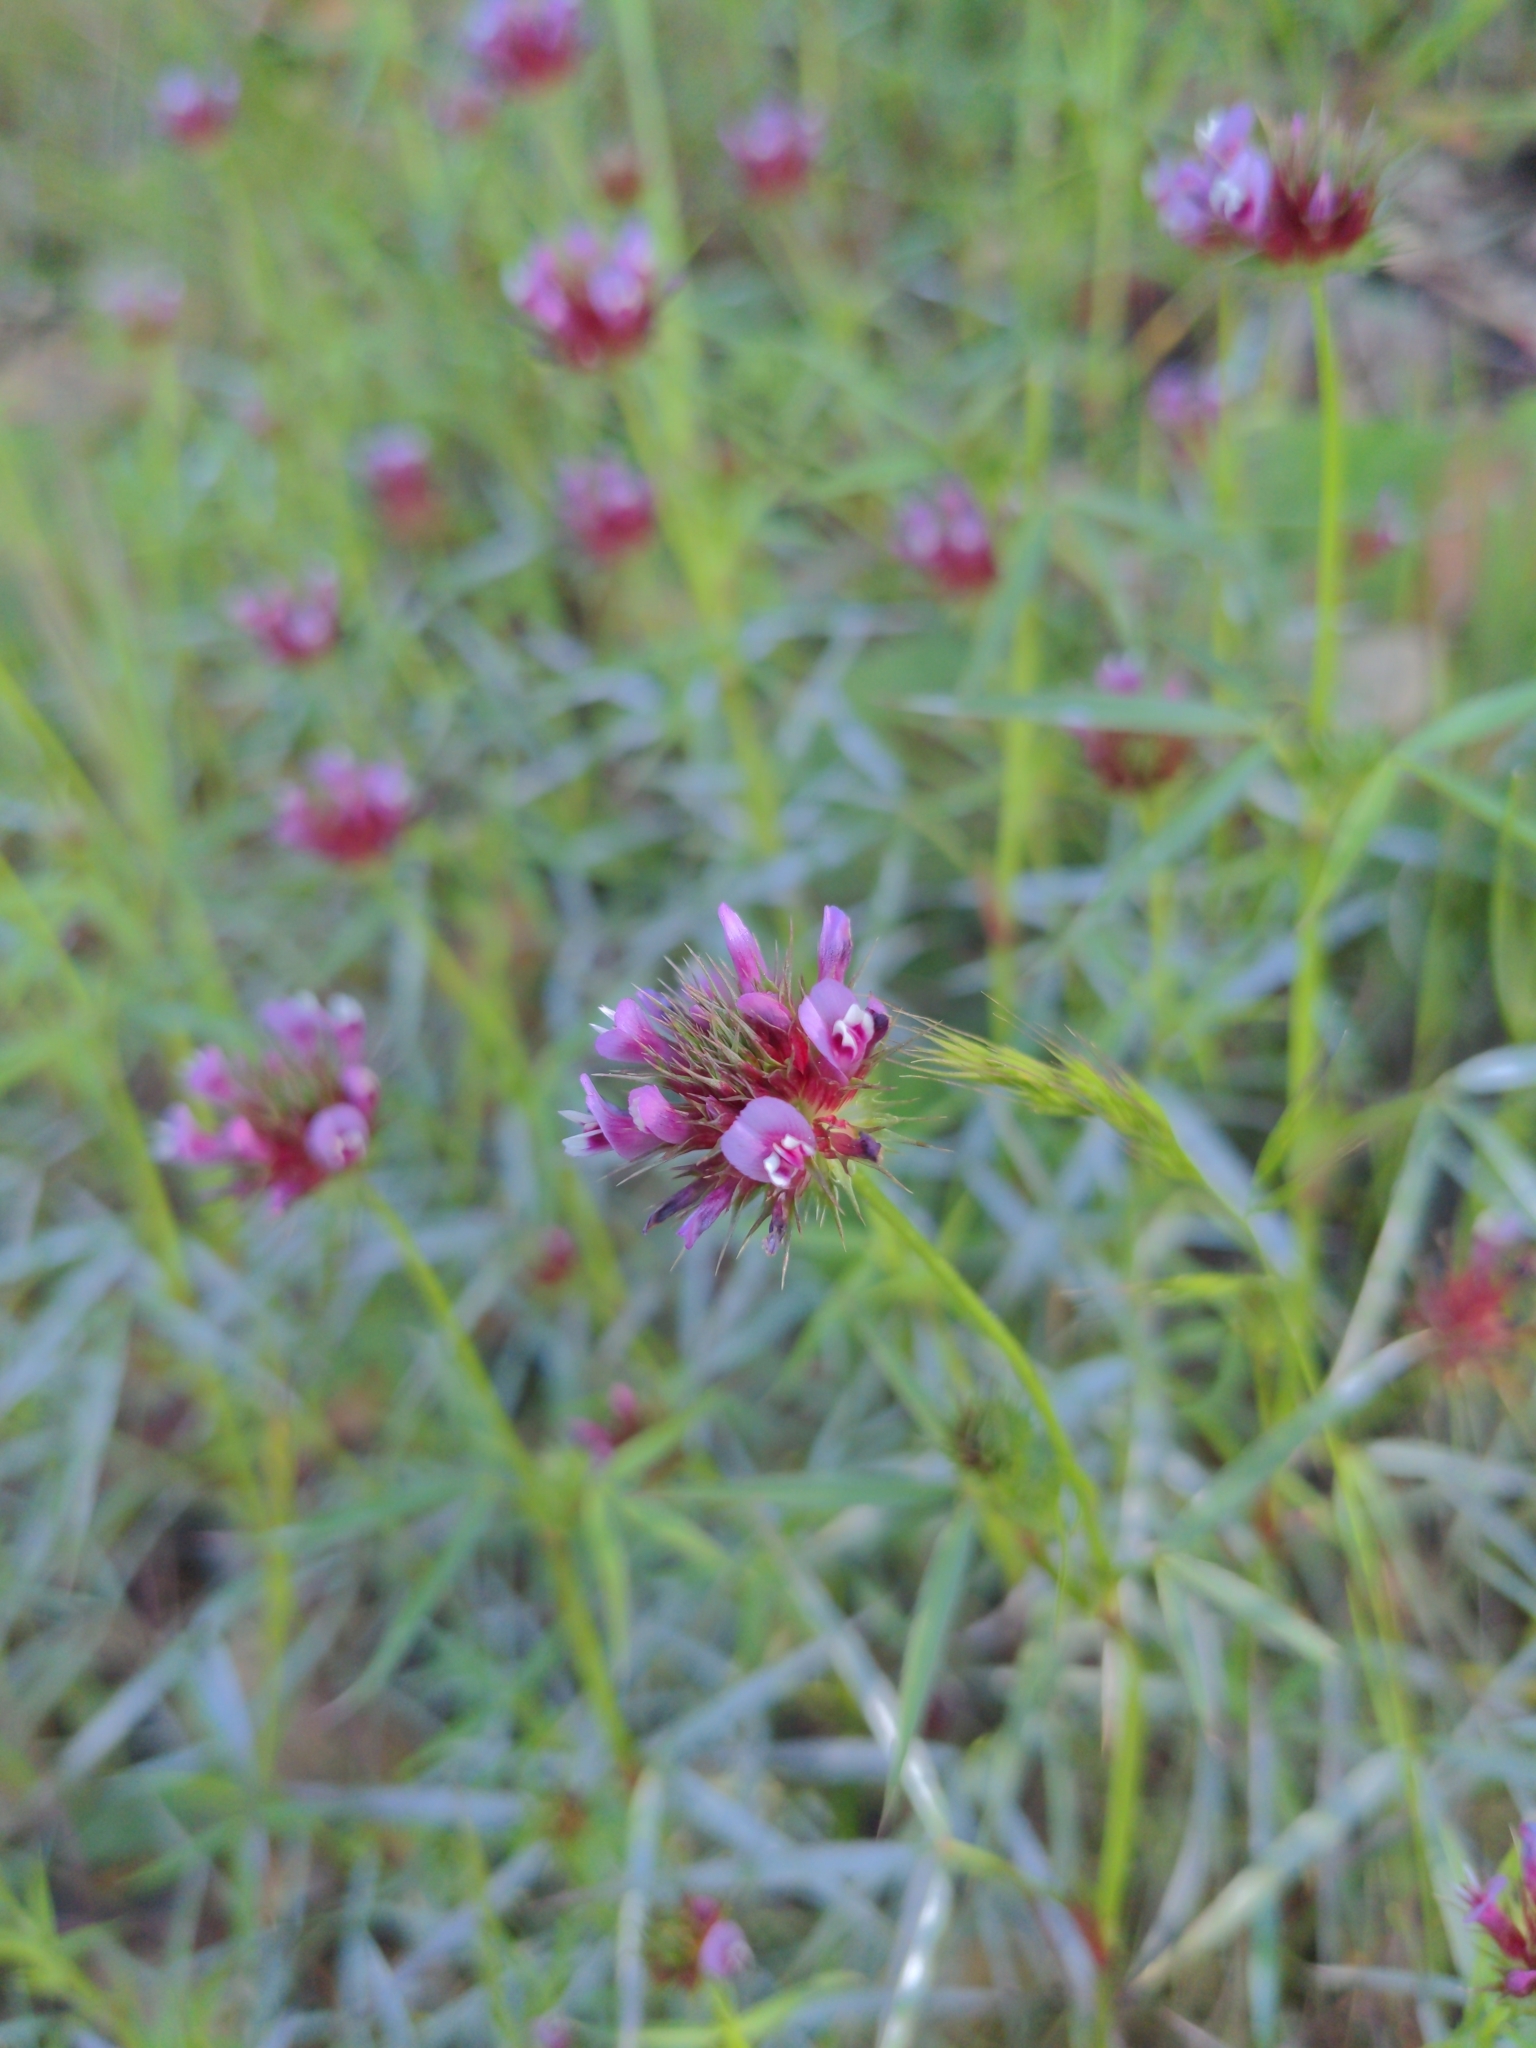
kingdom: Plantae
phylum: Tracheophyta
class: Magnoliopsida
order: Fabales
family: Fabaceae
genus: Trifolium
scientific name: Trifolium willdenovii
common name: Tomcat clover
